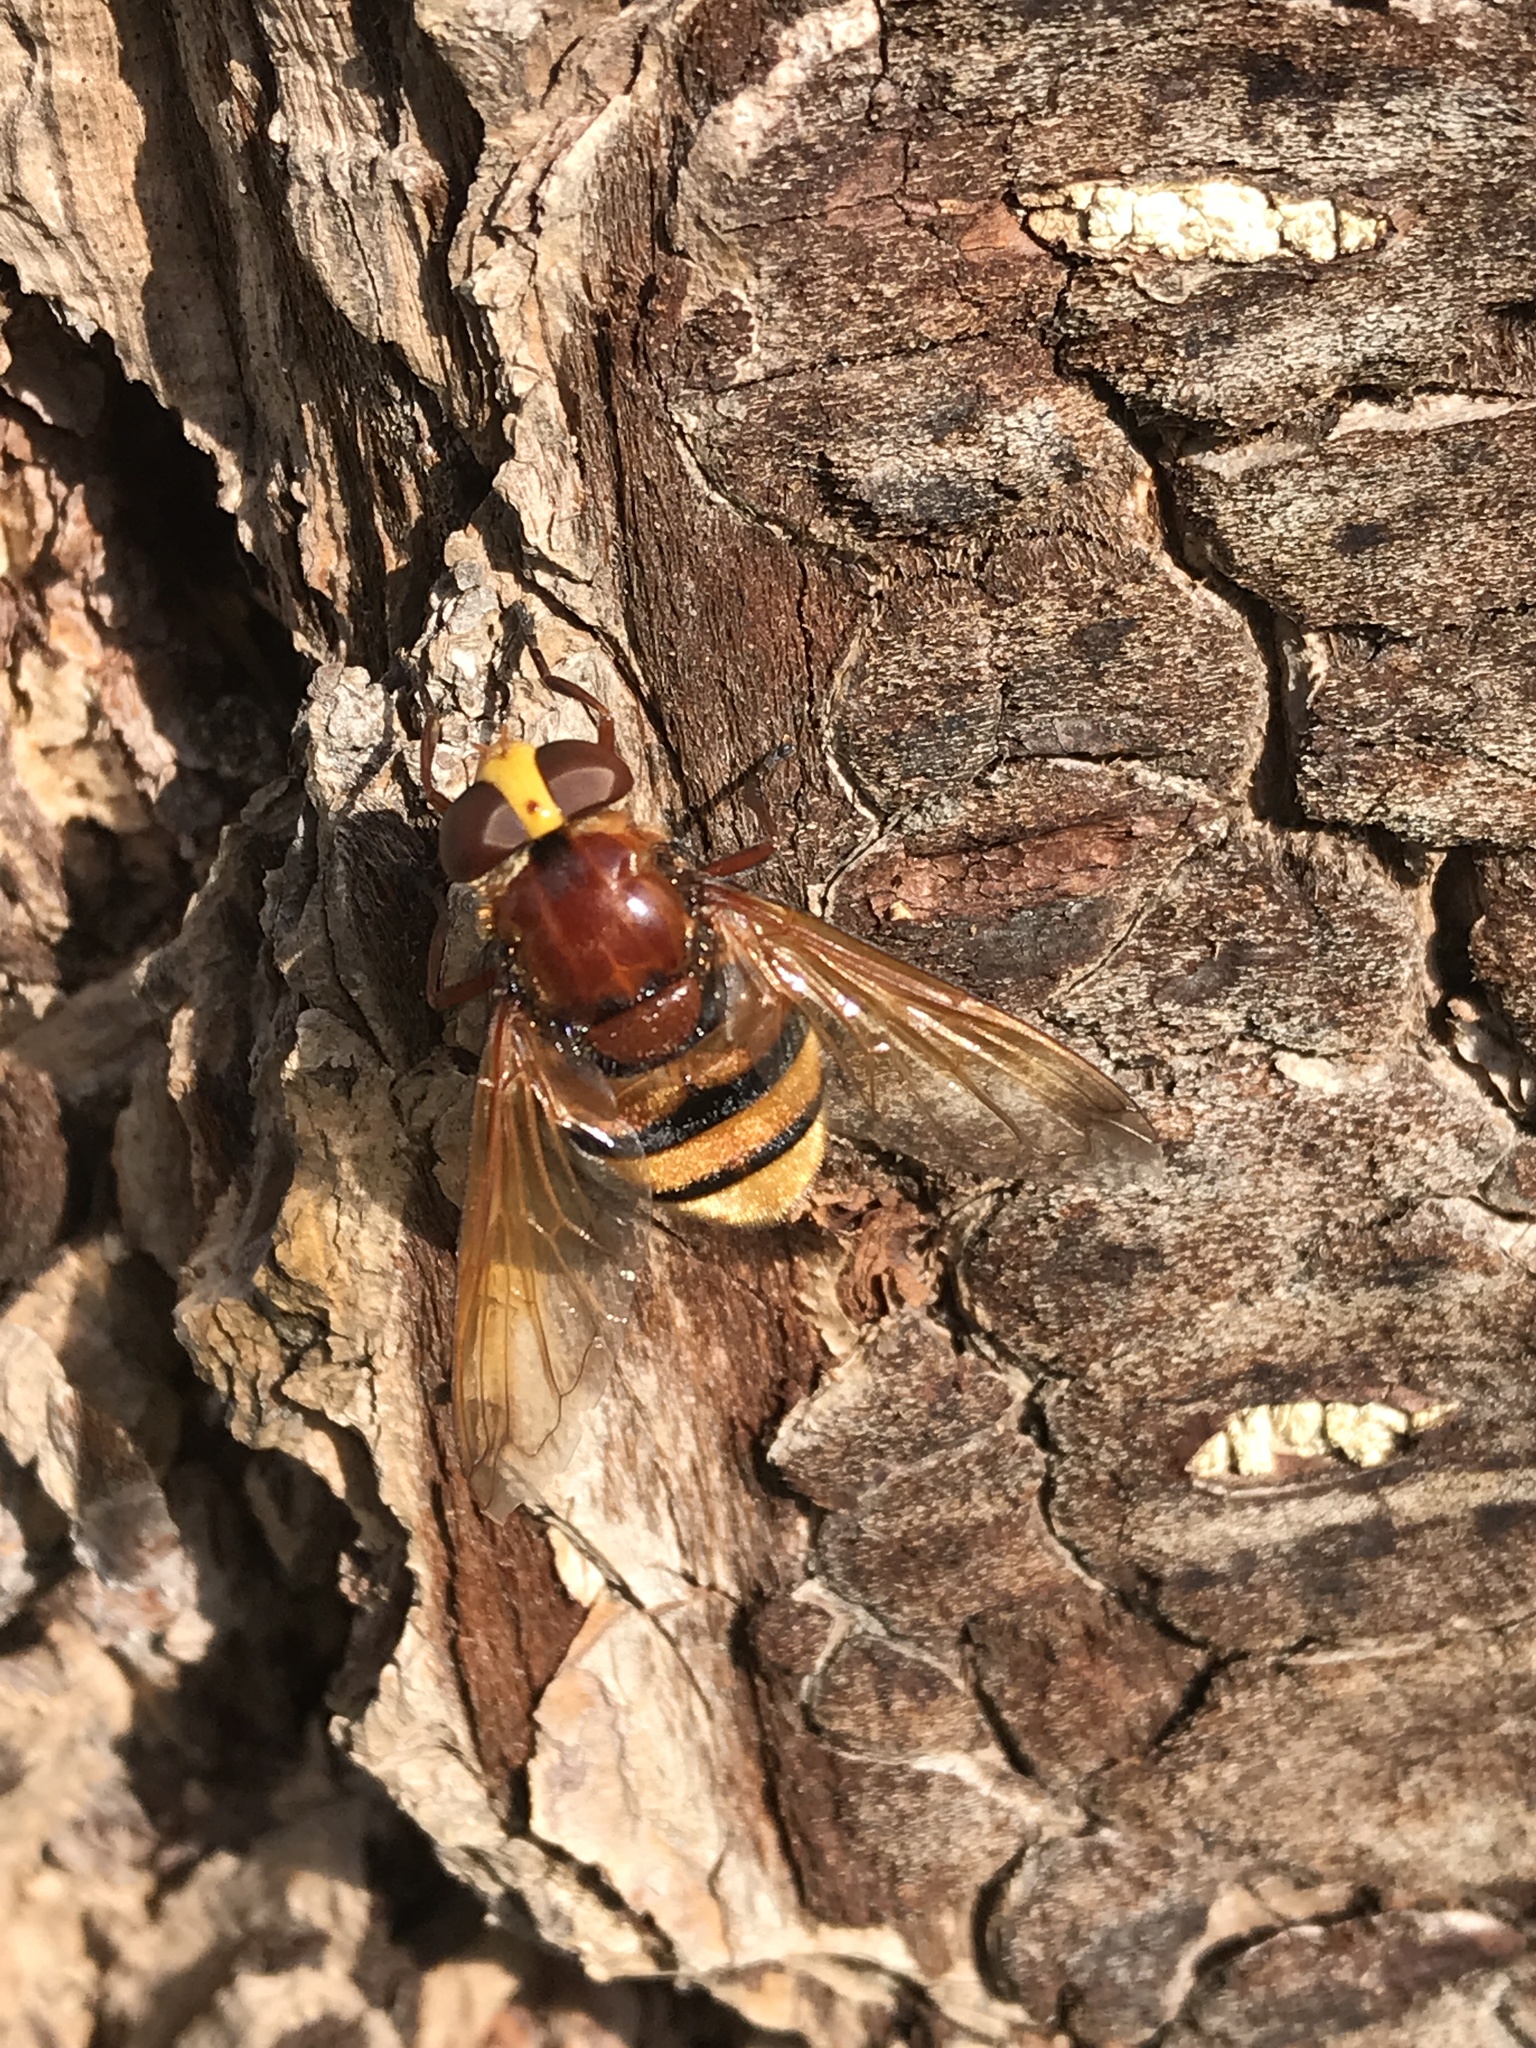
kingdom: Animalia
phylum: Arthropoda
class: Insecta
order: Diptera
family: Syrphidae
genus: Volucella
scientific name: Volucella zonaria
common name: Hornet hoverfly
